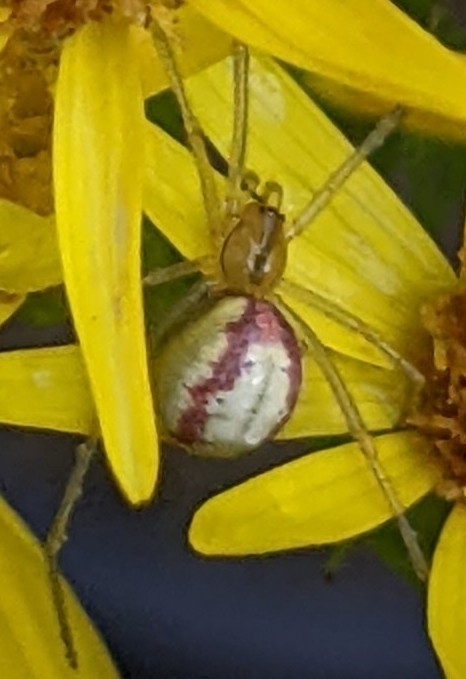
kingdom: Animalia
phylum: Arthropoda
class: Arachnida
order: Araneae
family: Theridiidae
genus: Enoplognatha
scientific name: Enoplognatha ovata
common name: Common candy-striped spider
